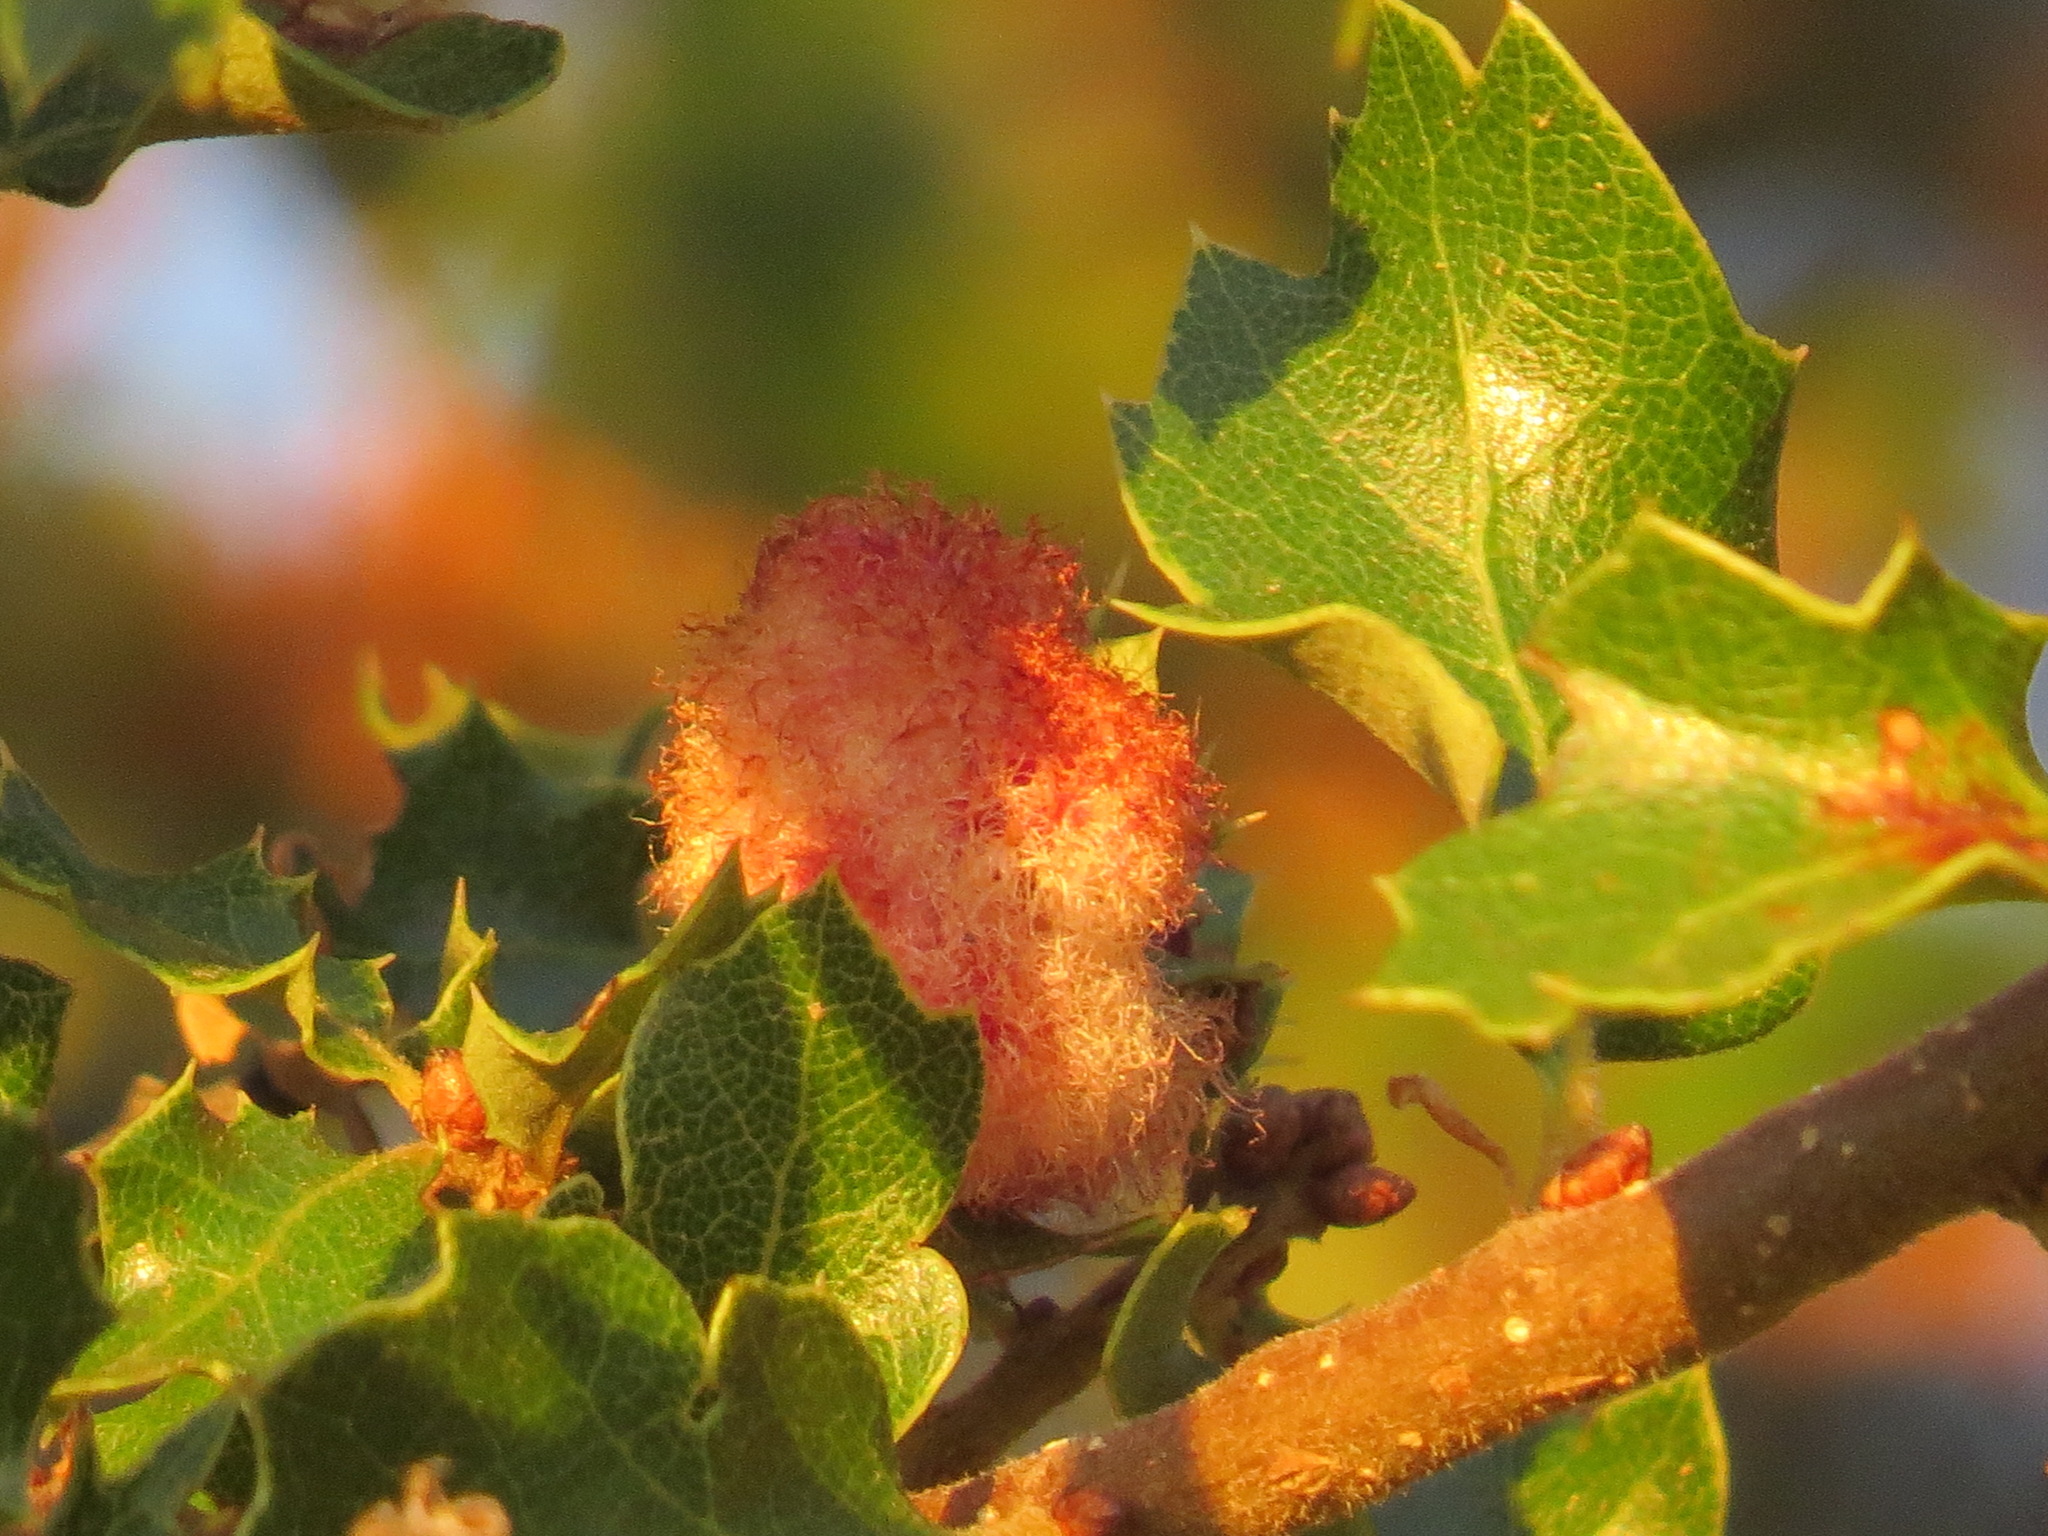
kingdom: Animalia
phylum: Arthropoda
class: Insecta
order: Hymenoptera
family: Cynipidae
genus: Andricus
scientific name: Andricus
